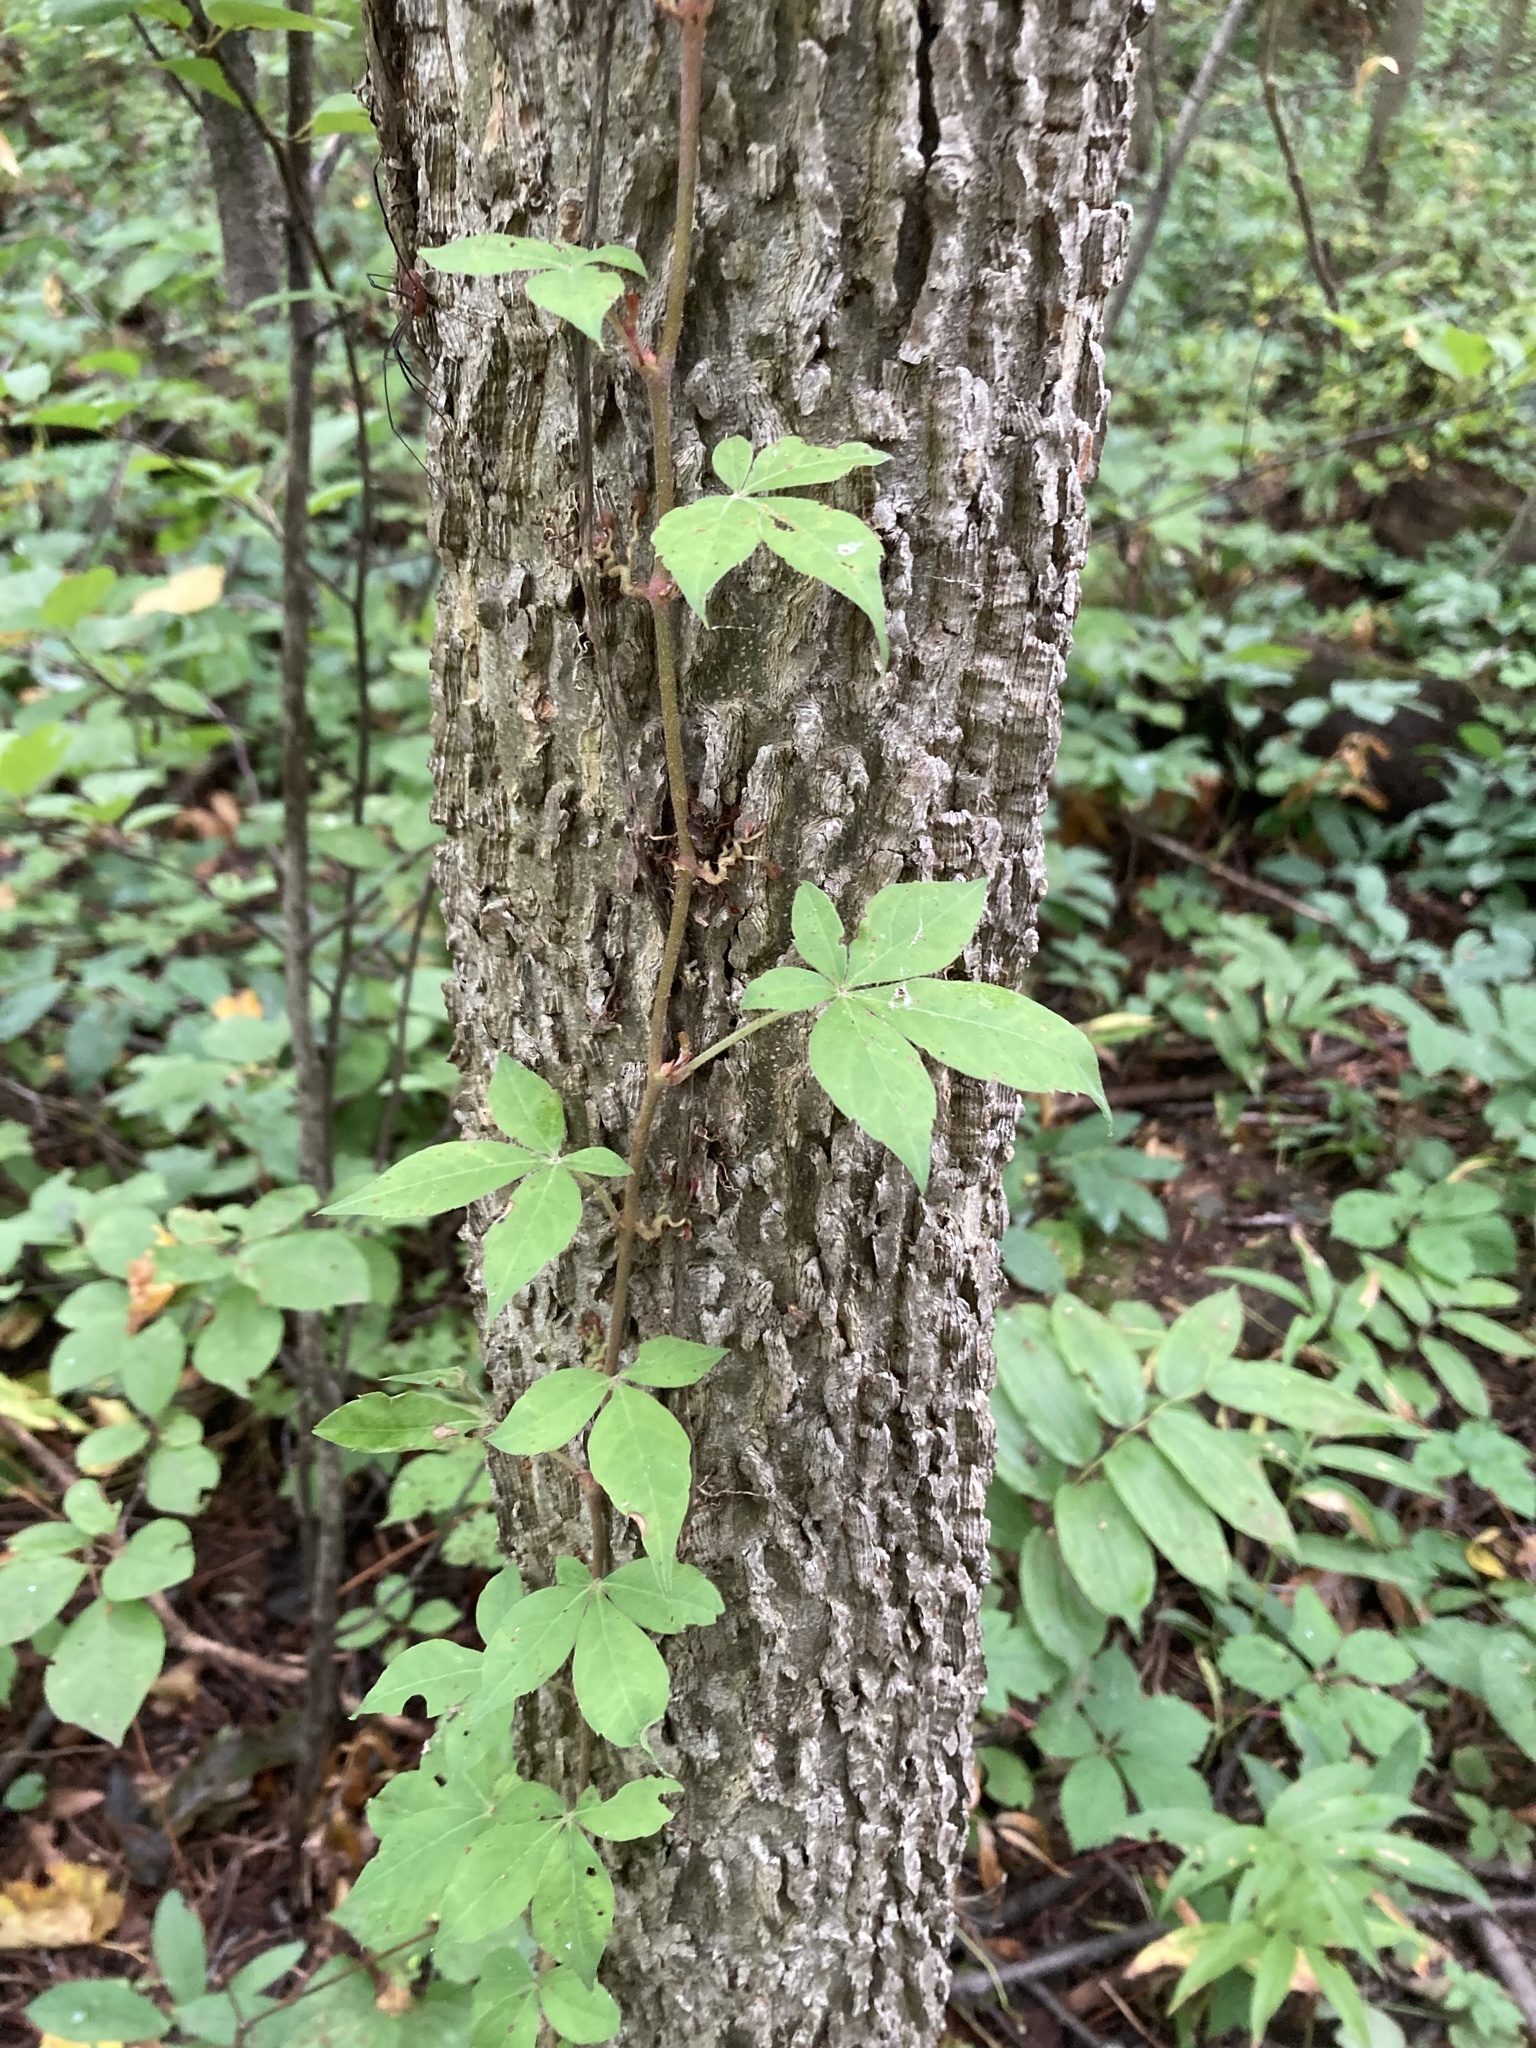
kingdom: Plantae
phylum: Tracheophyta
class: Magnoliopsida
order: Vitales
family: Vitaceae
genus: Parthenocissus
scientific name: Parthenocissus quinquefolia
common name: Virginia-creeper
